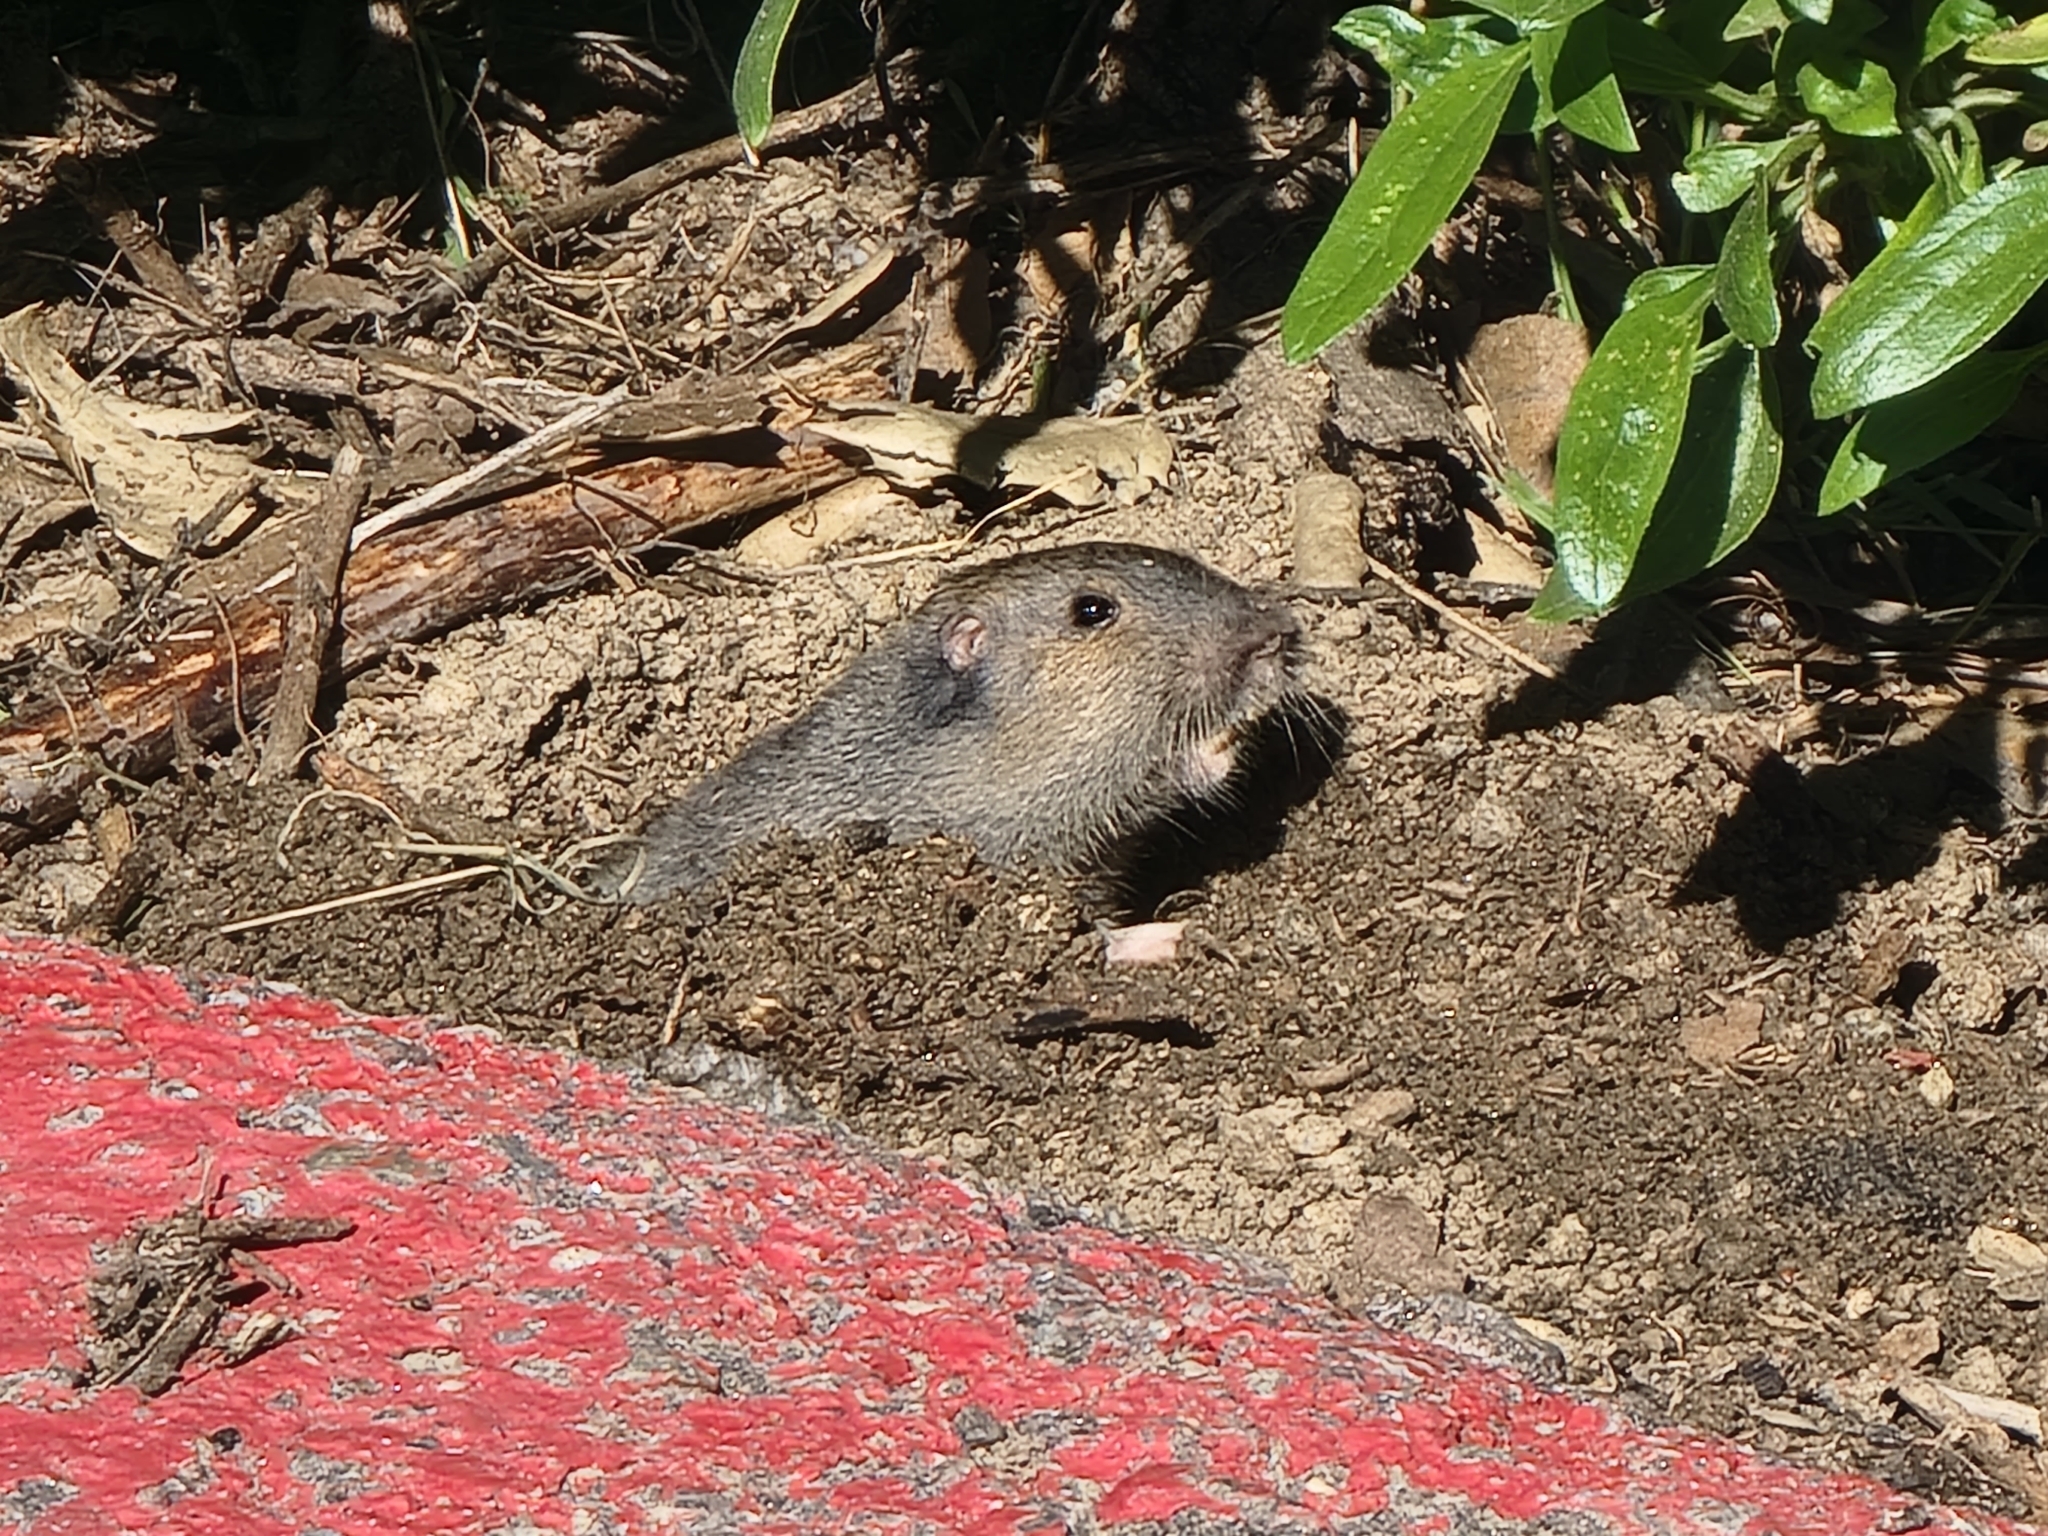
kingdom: Animalia
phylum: Chordata
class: Mammalia
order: Rodentia
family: Geomyidae
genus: Thomomys
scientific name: Thomomys bottae
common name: Botta's pocket gopher
